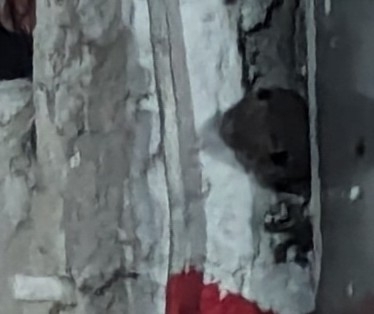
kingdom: Animalia
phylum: Chordata
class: Squamata
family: Sphaerodactylidae
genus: Aristelliger
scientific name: Aristelliger georgeensis
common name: Saint george island gecko
